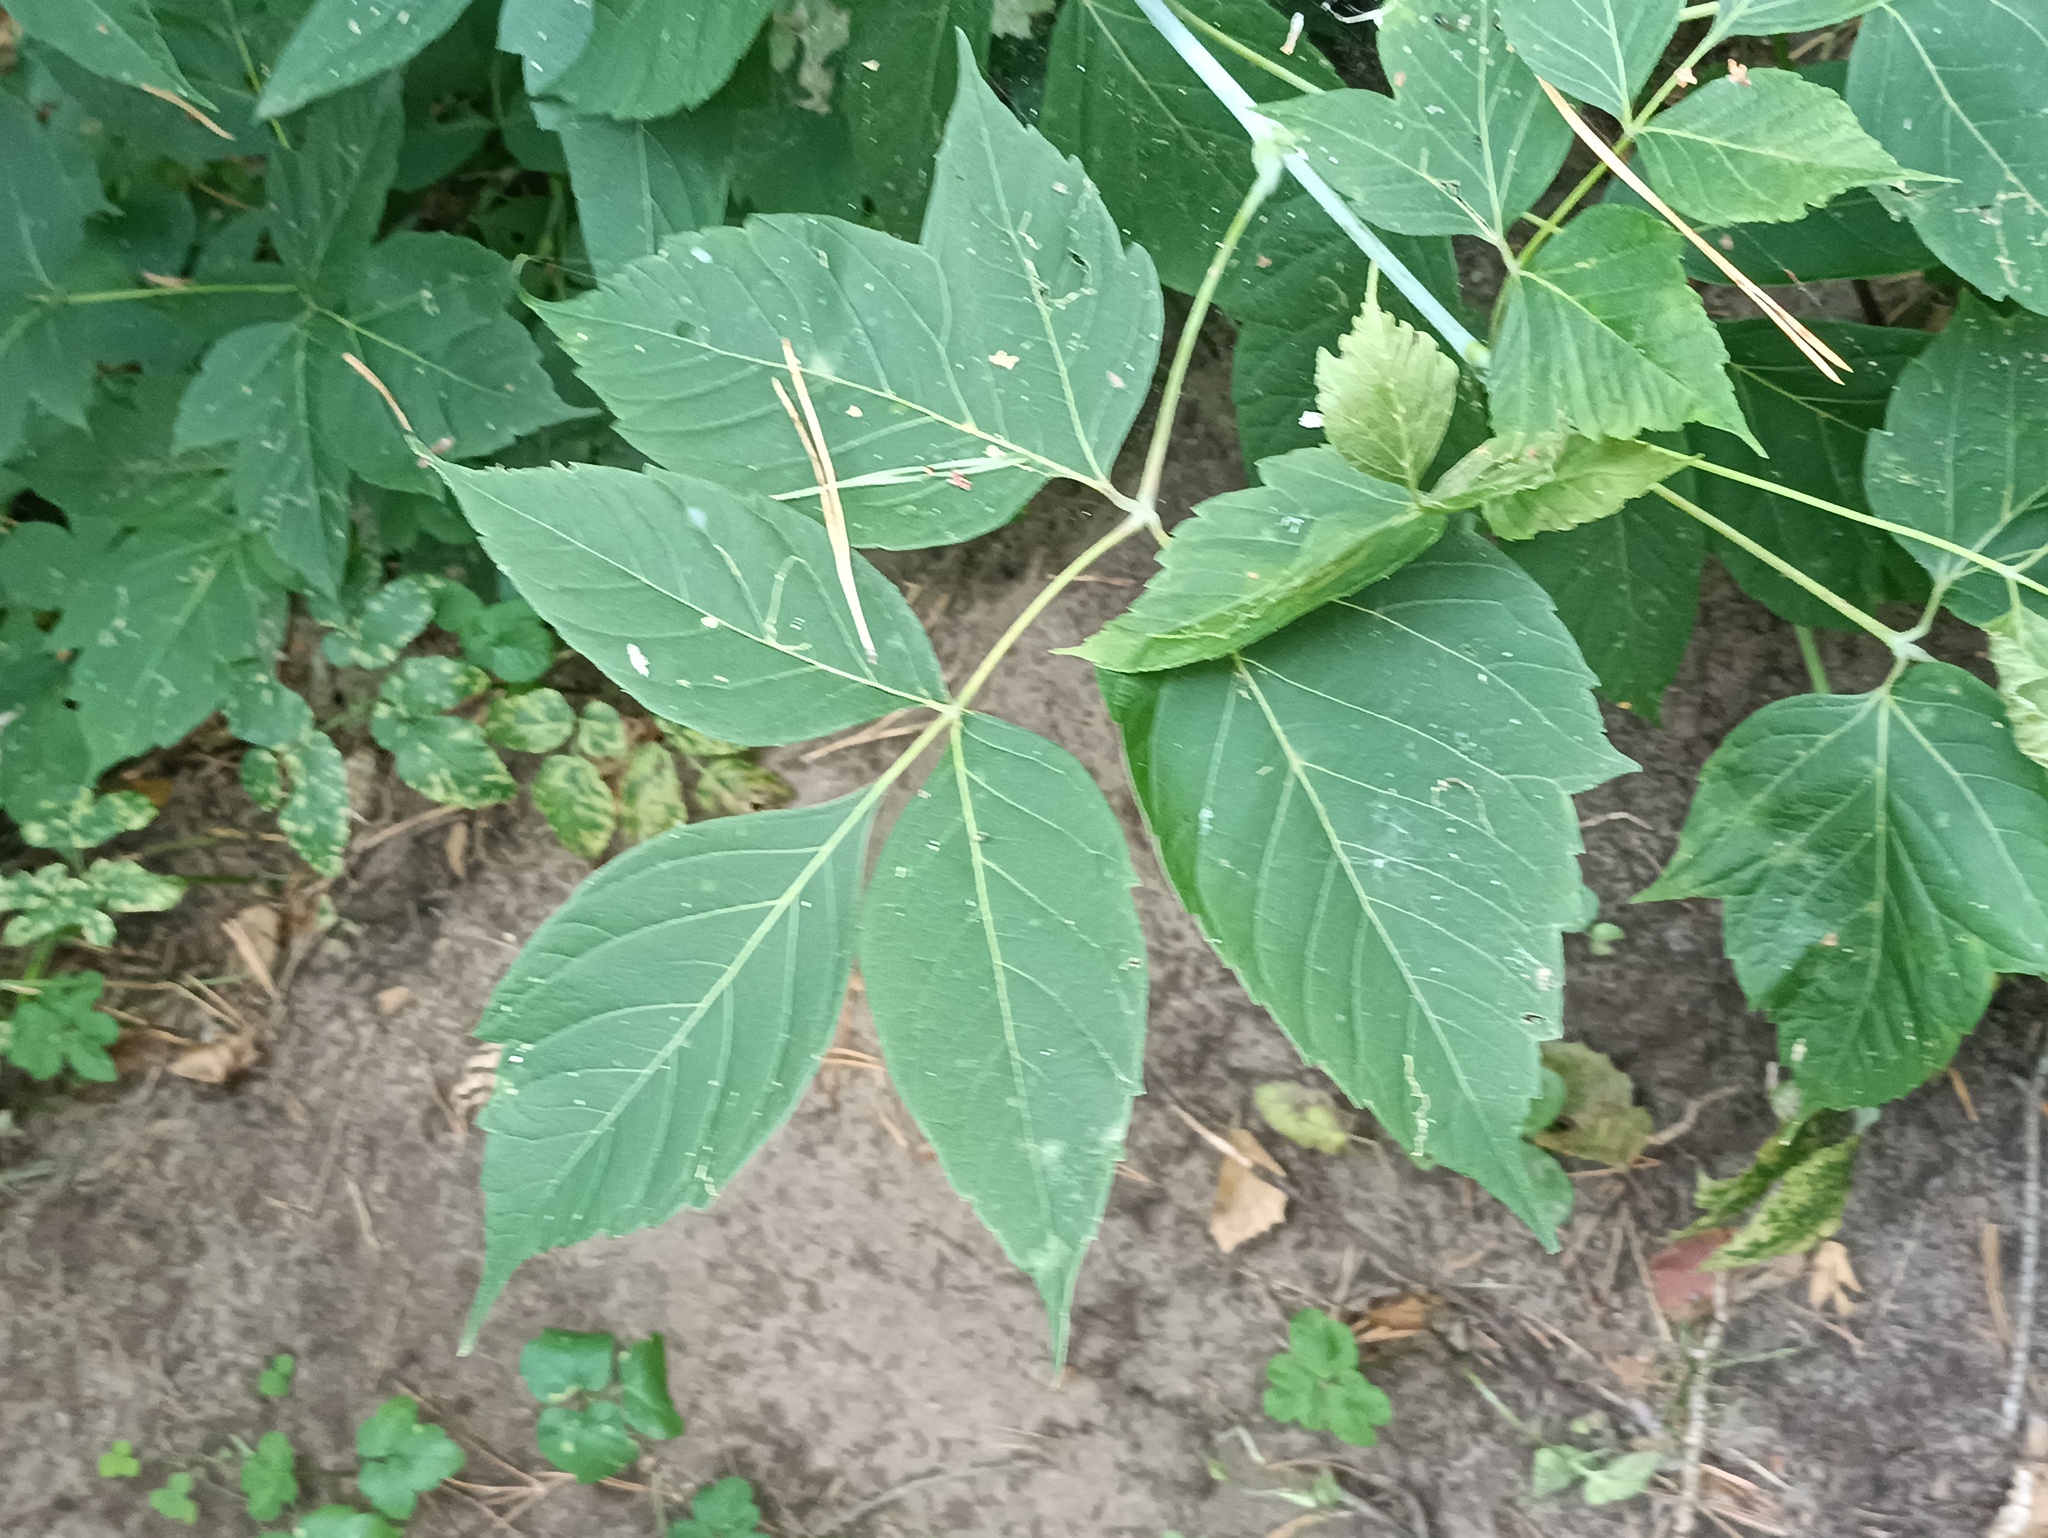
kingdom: Plantae
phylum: Tracheophyta
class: Magnoliopsida
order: Sapindales
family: Sapindaceae
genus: Acer
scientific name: Acer negundo
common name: Ashleaf maple
